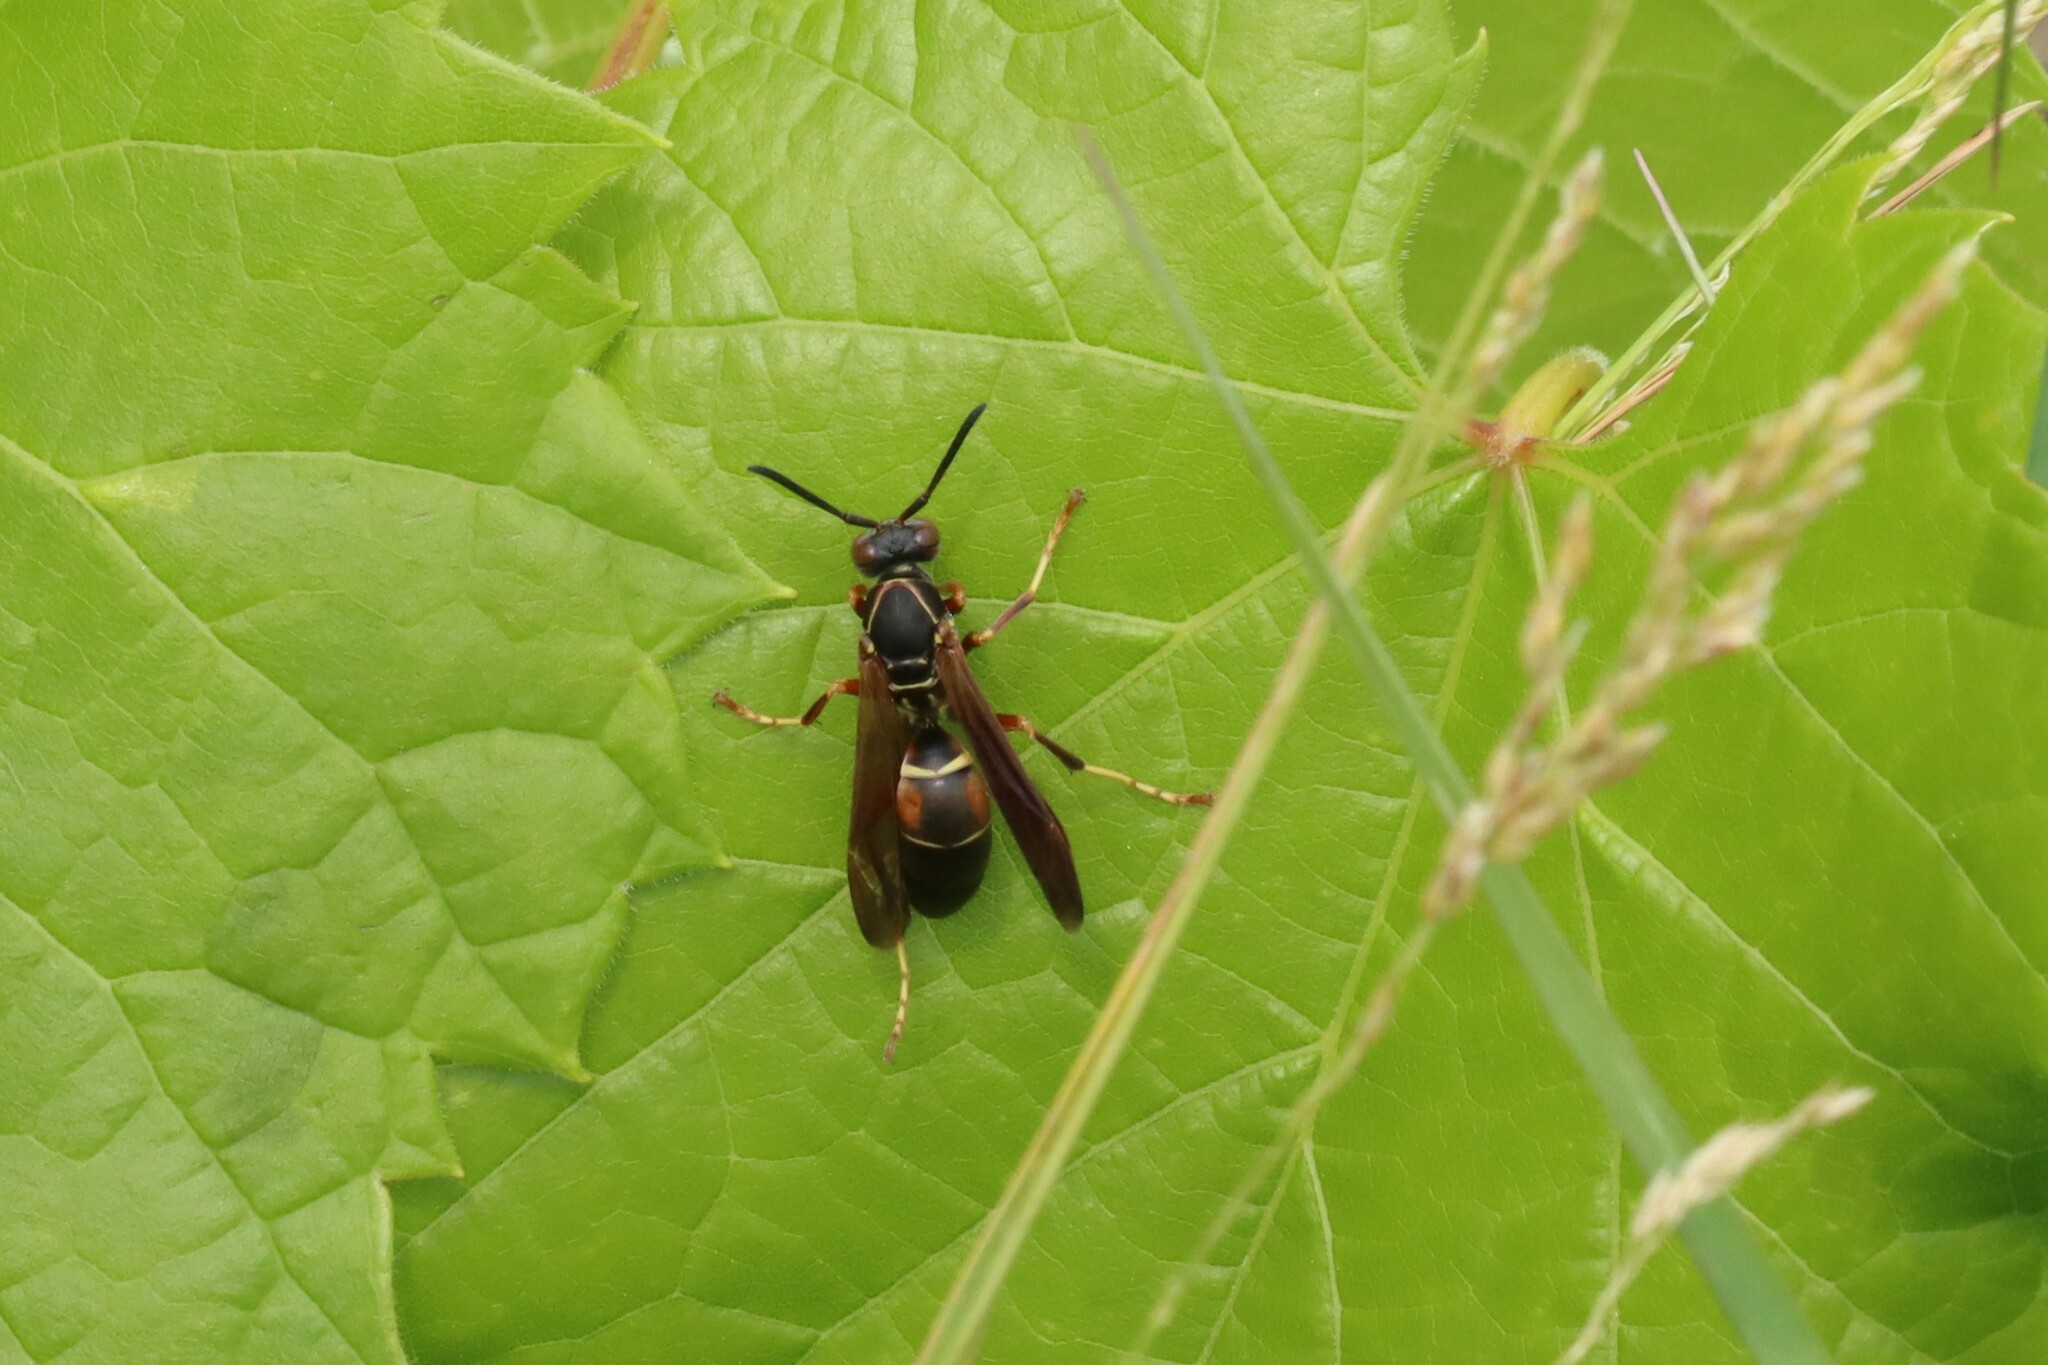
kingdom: Animalia
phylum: Arthropoda
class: Insecta
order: Hymenoptera
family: Eumenidae
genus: Polistes
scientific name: Polistes fuscatus
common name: Dark paper wasp
